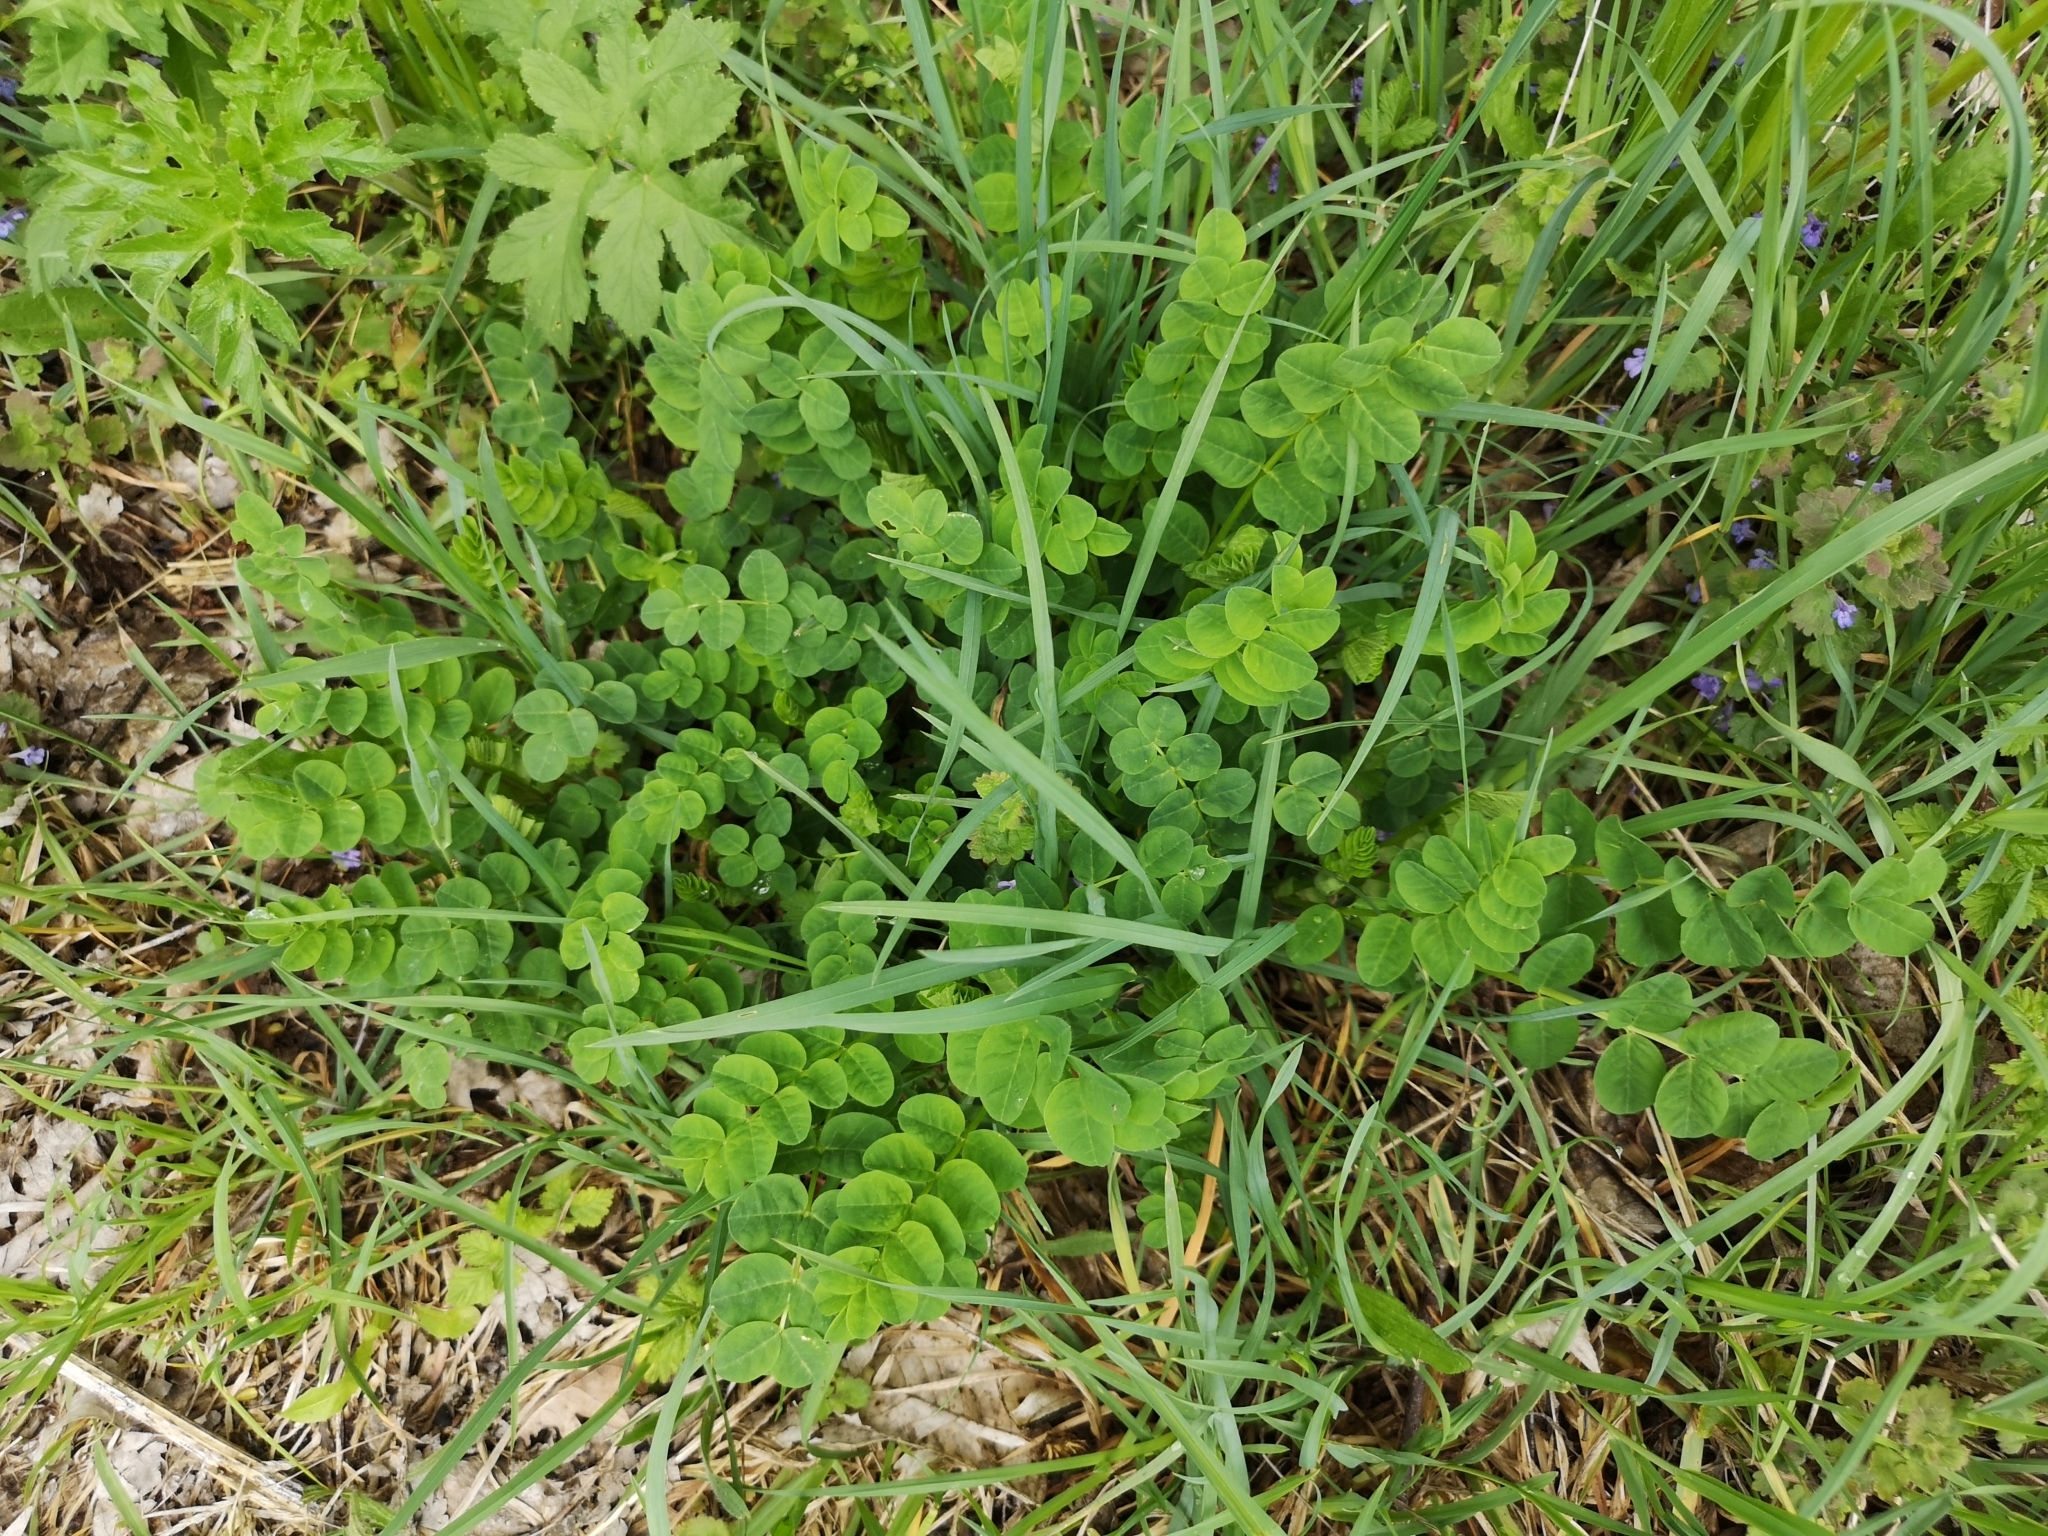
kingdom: Plantae
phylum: Tracheophyta
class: Magnoliopsida
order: Fabales
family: Fabaceae
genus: Astragalus
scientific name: Astragalus glycyphyllos
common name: Wild liquorice
